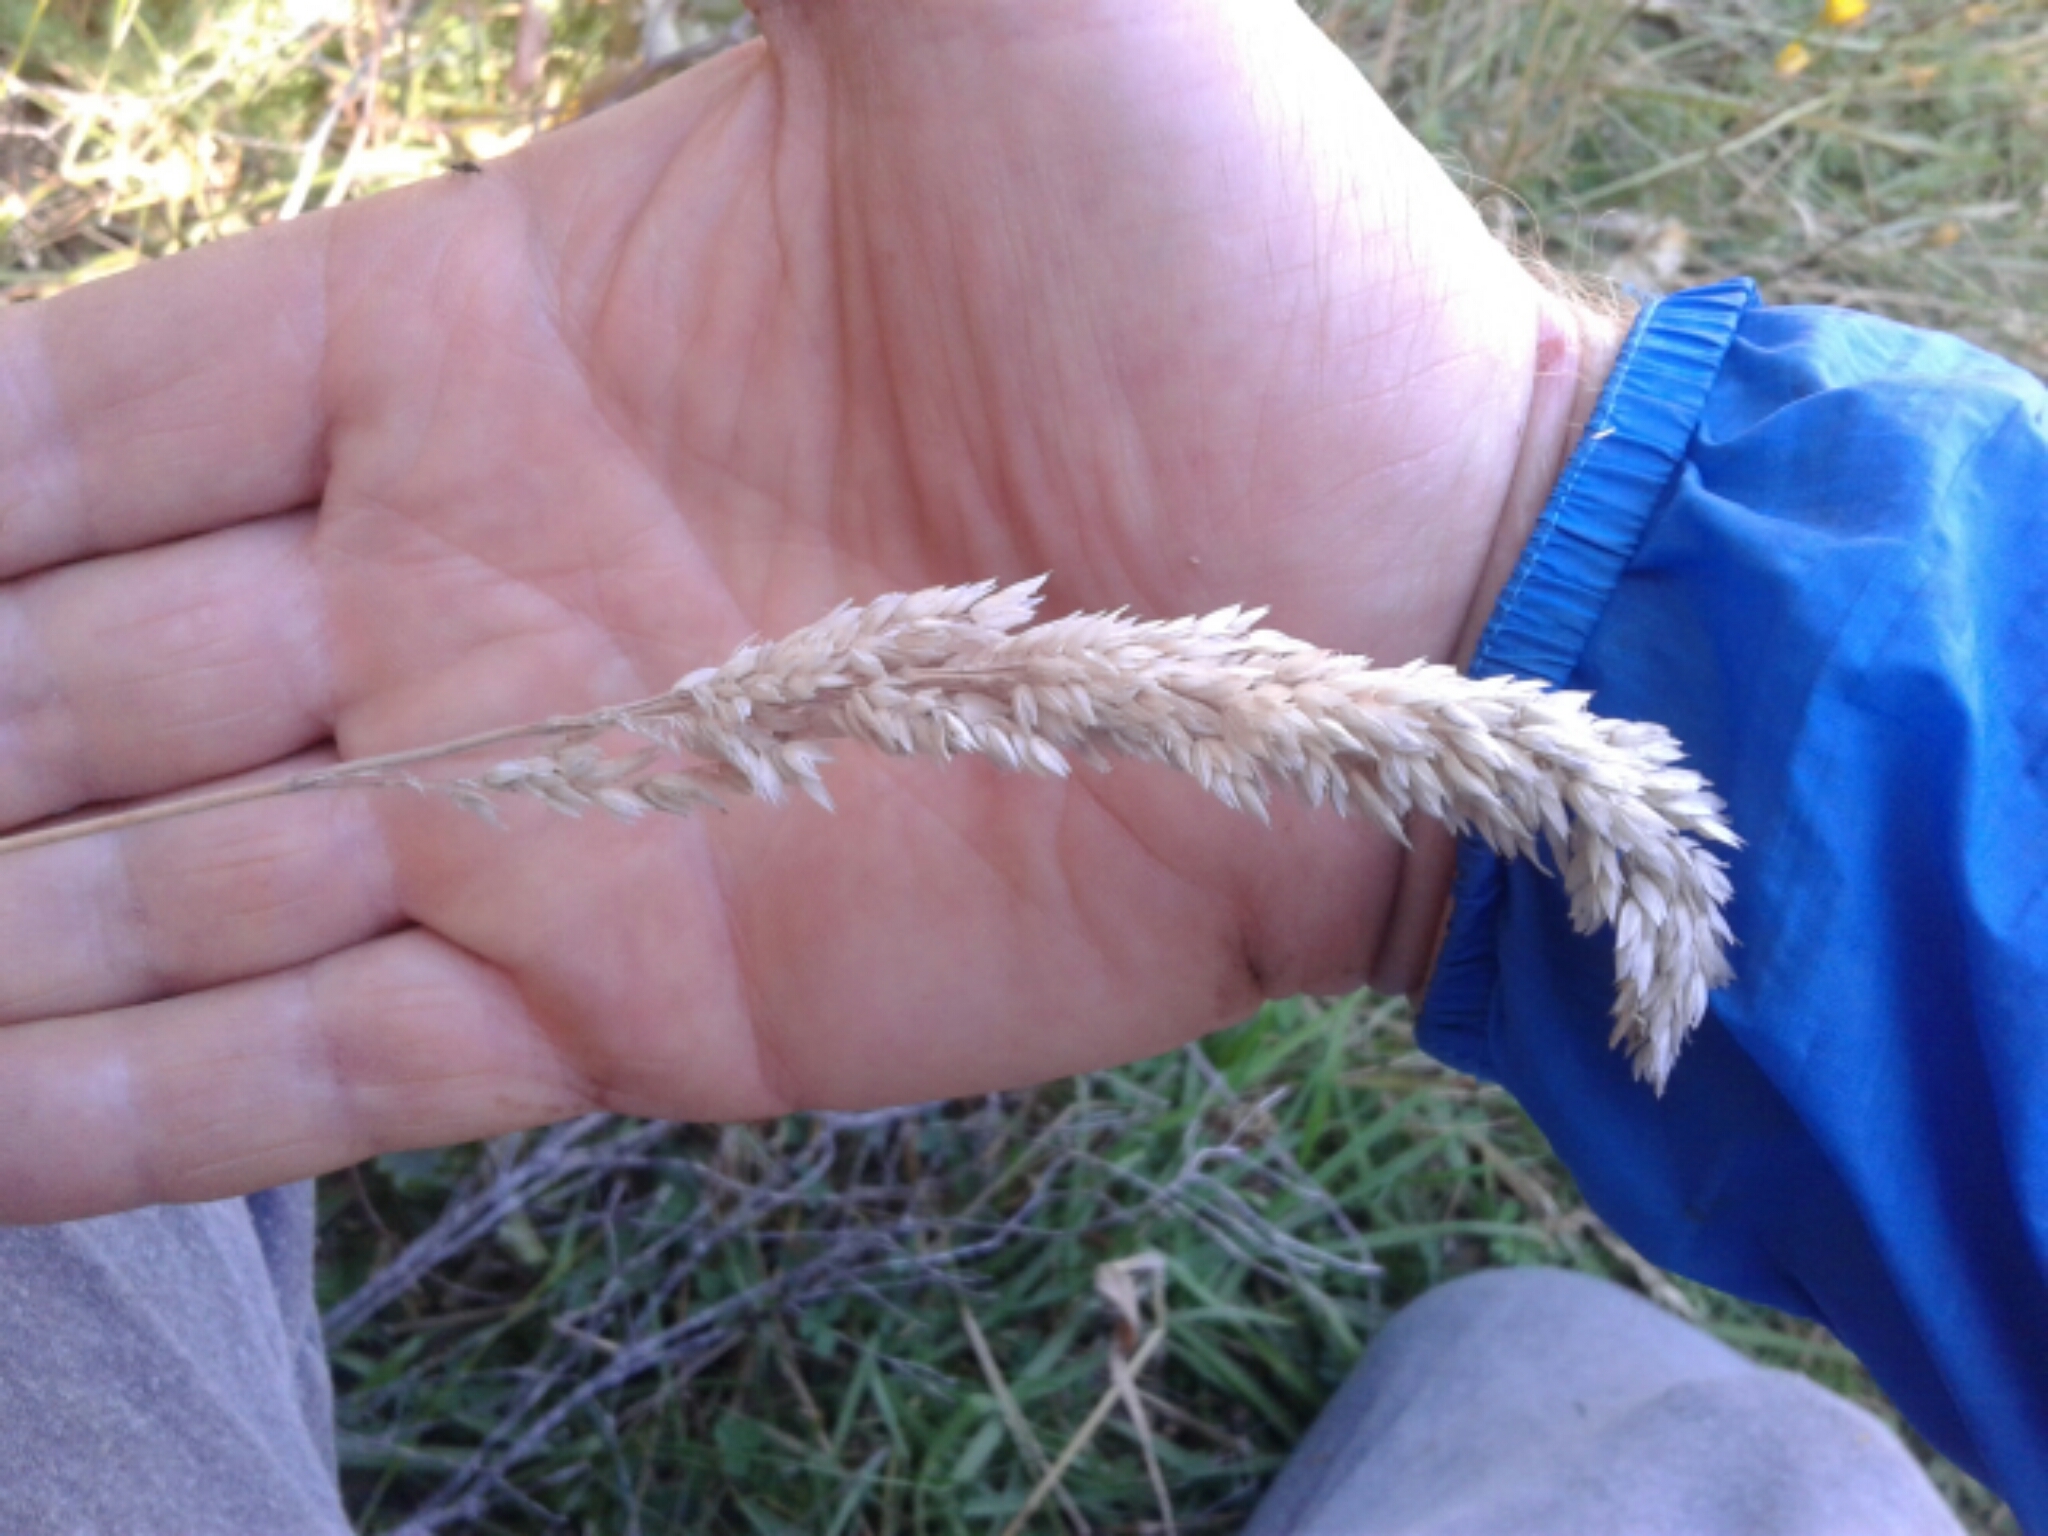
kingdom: Plantae
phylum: Tracheophyta
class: Liliopsida
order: Poales
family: Poaceae
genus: Holcus
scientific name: Holcus lanatus
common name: Yorkshire-fog
